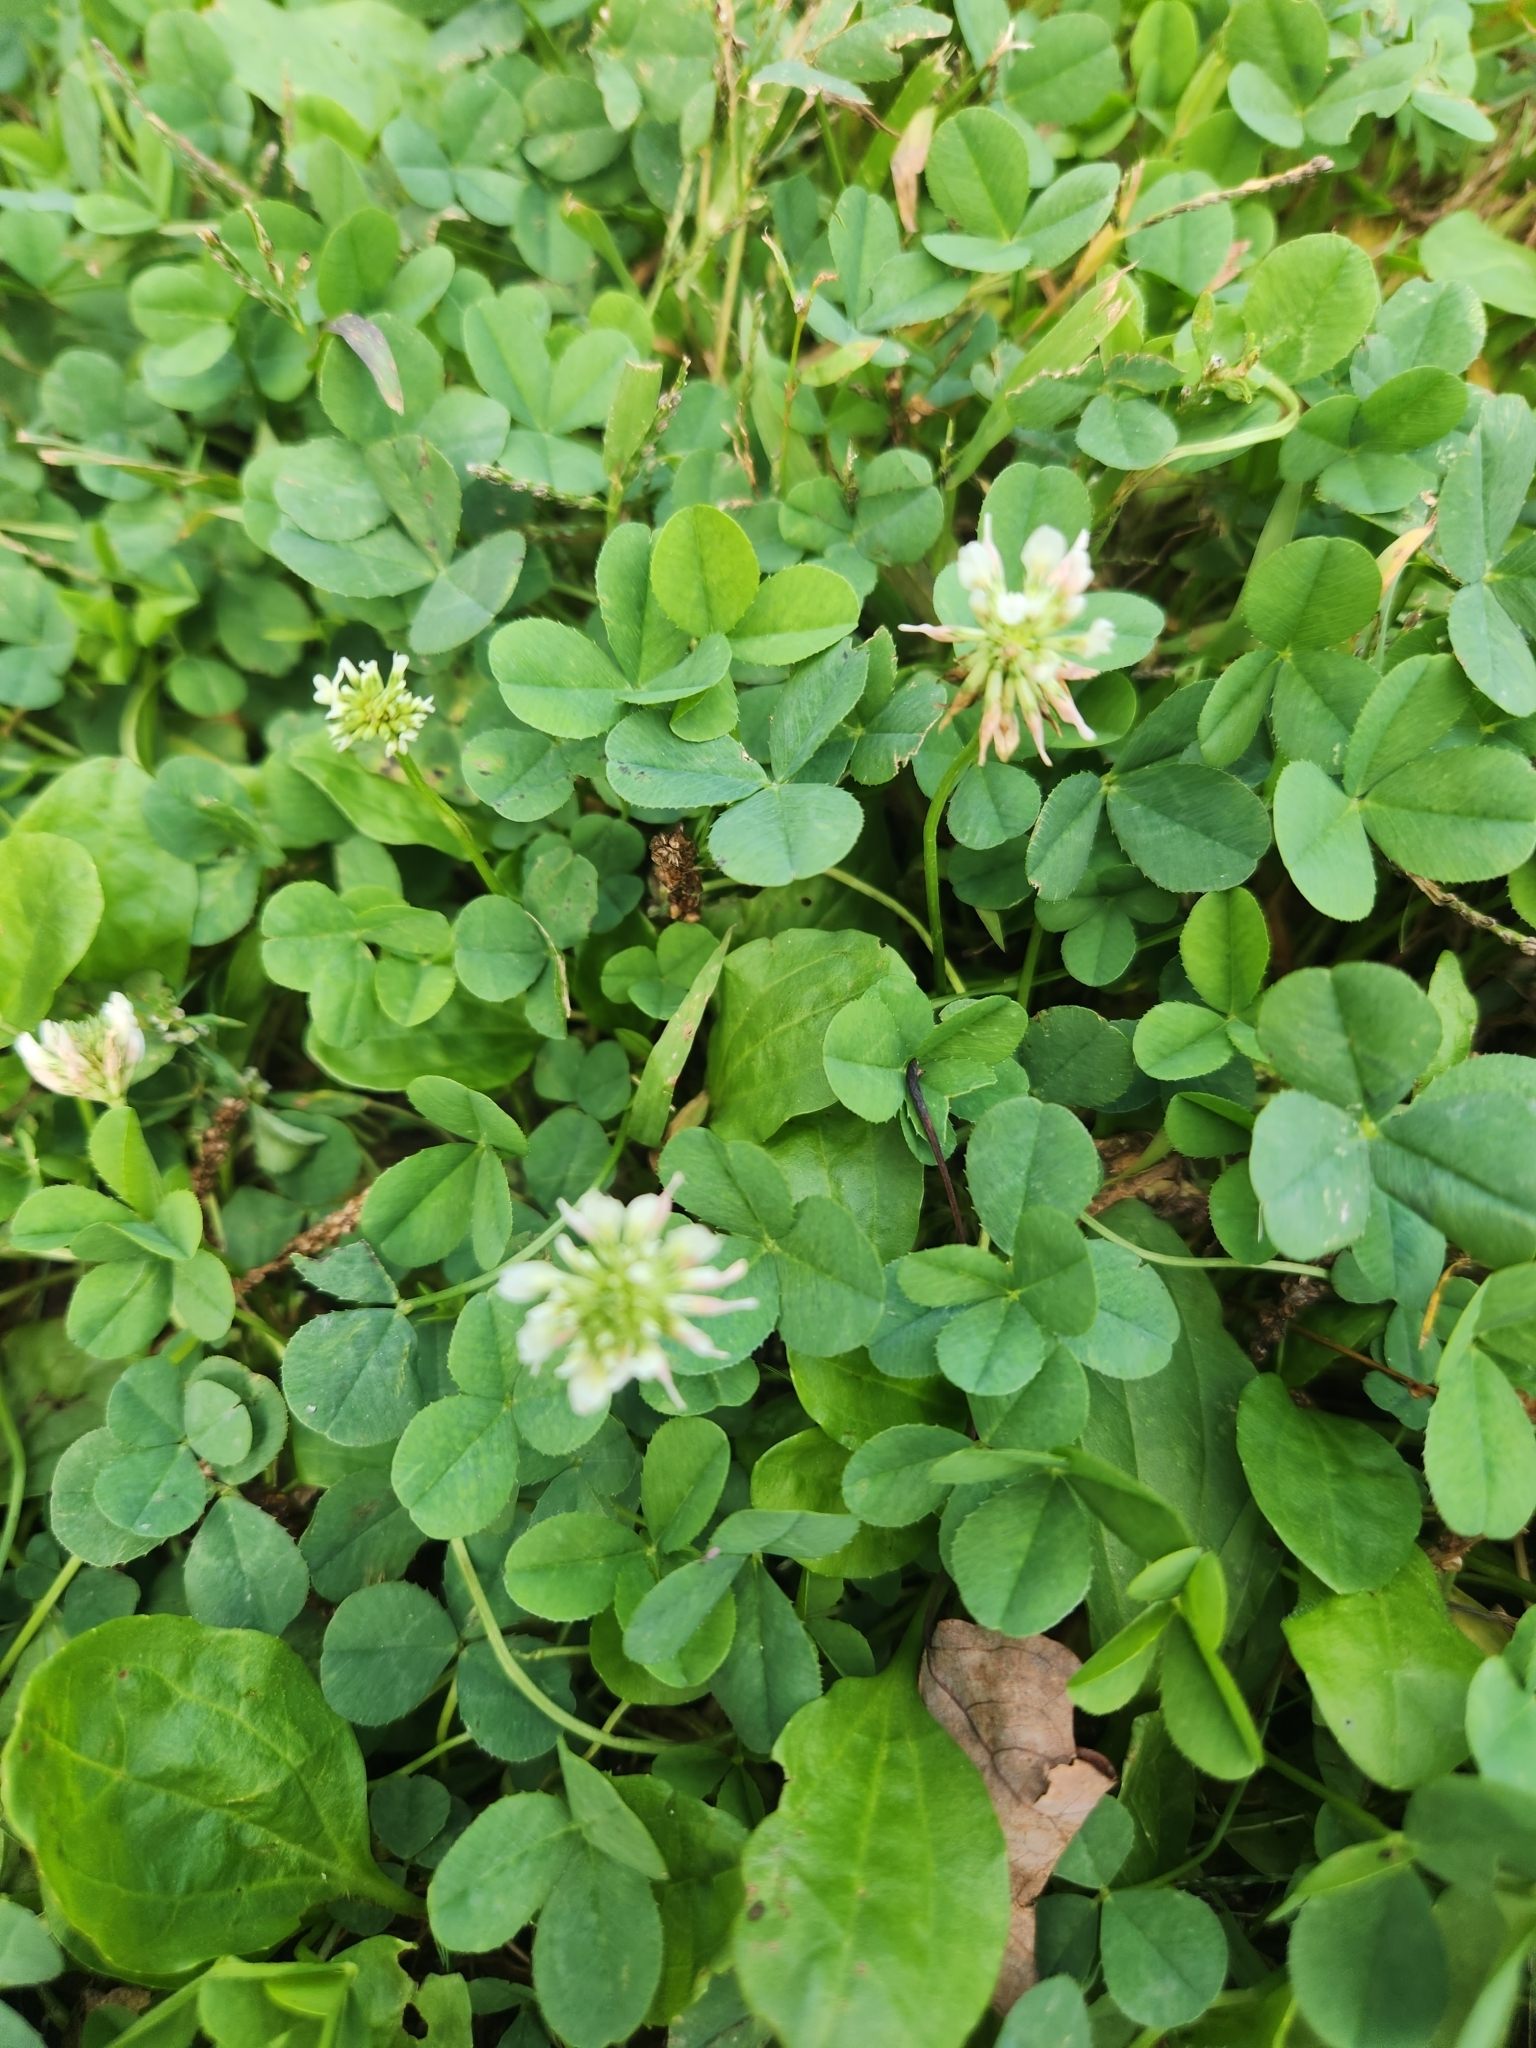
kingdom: Plantae
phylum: Tracheophyta
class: Magnoliopsida
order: Fabales
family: Fabaceae
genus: Trifolium
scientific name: Trifolium repens
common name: White clover
